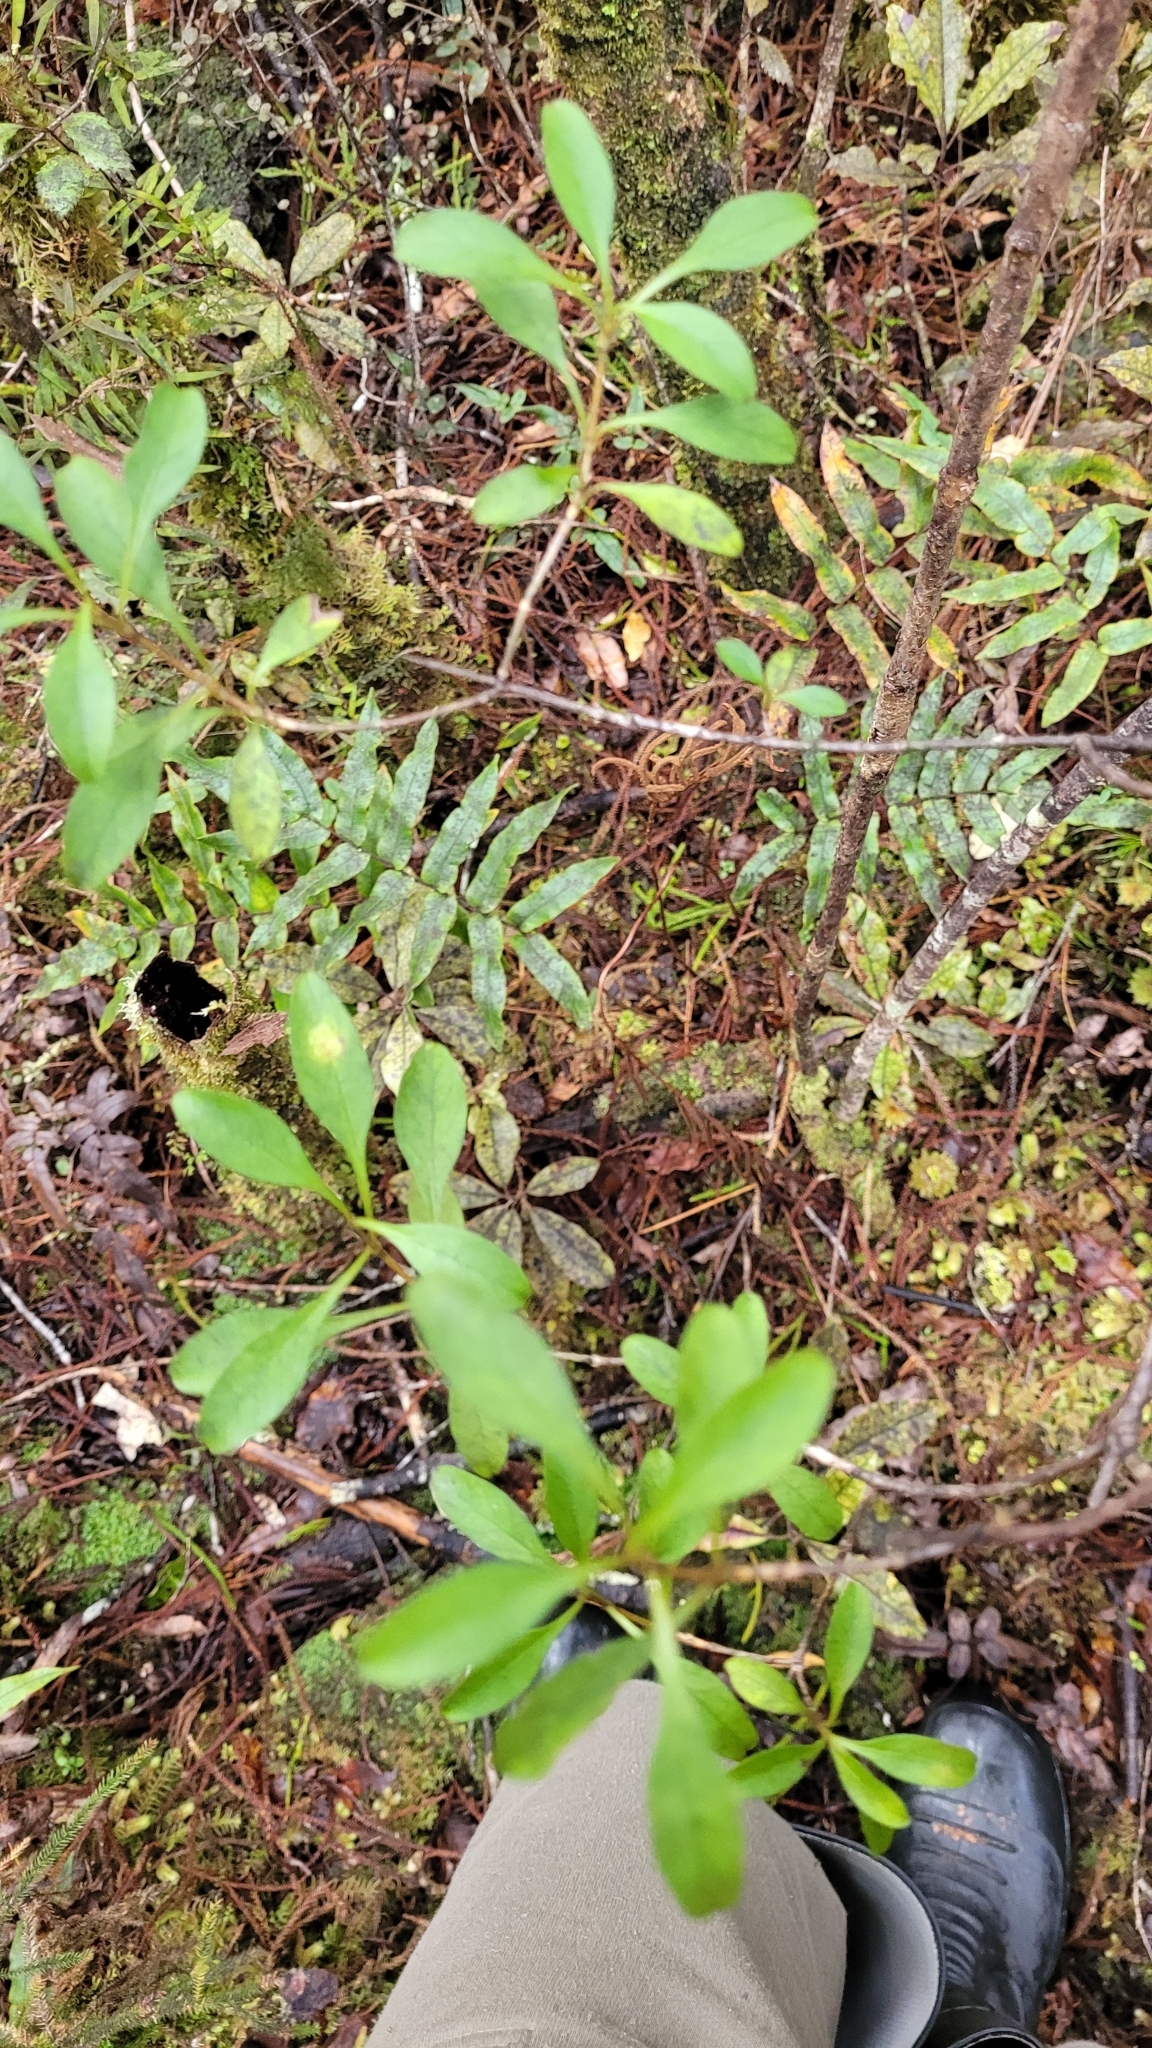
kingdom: Plantae
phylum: Tracheophyta
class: Magnoliopsida
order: Gentianales
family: Rubiaceae
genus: Coprosma
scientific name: Coprosma foetidissima
